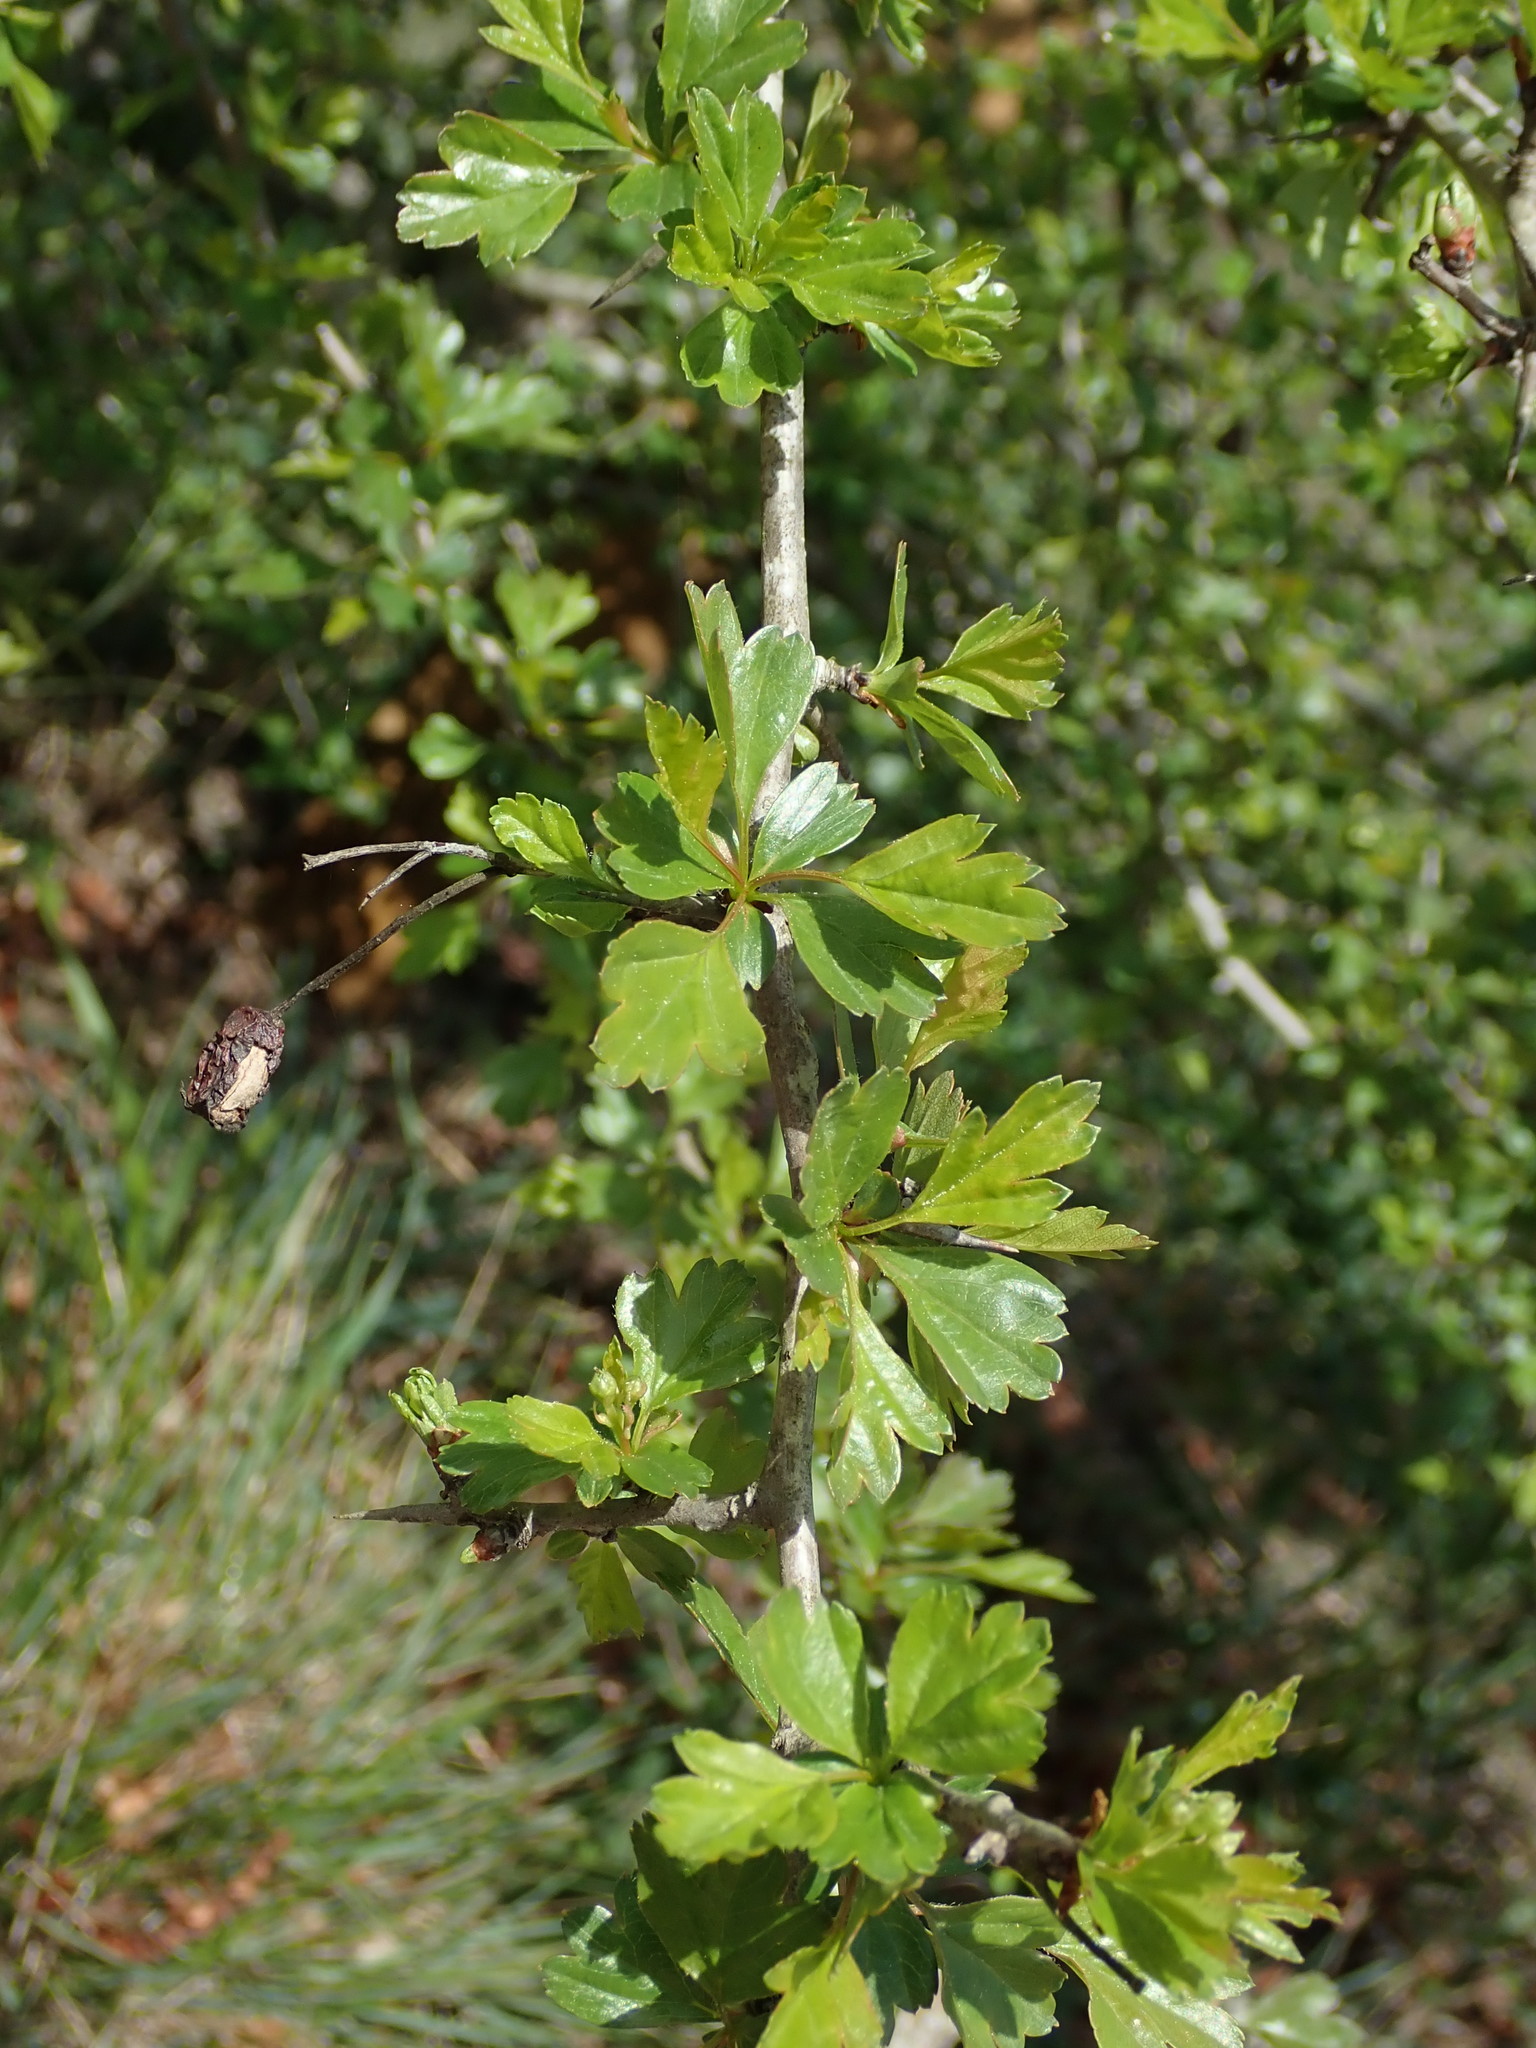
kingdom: Plantae
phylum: Tracheophyta
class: Magnoliopsida
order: Rosales
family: Rosaceae
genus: Crataegus
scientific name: Crataegus monogyna
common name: Hawthorn
